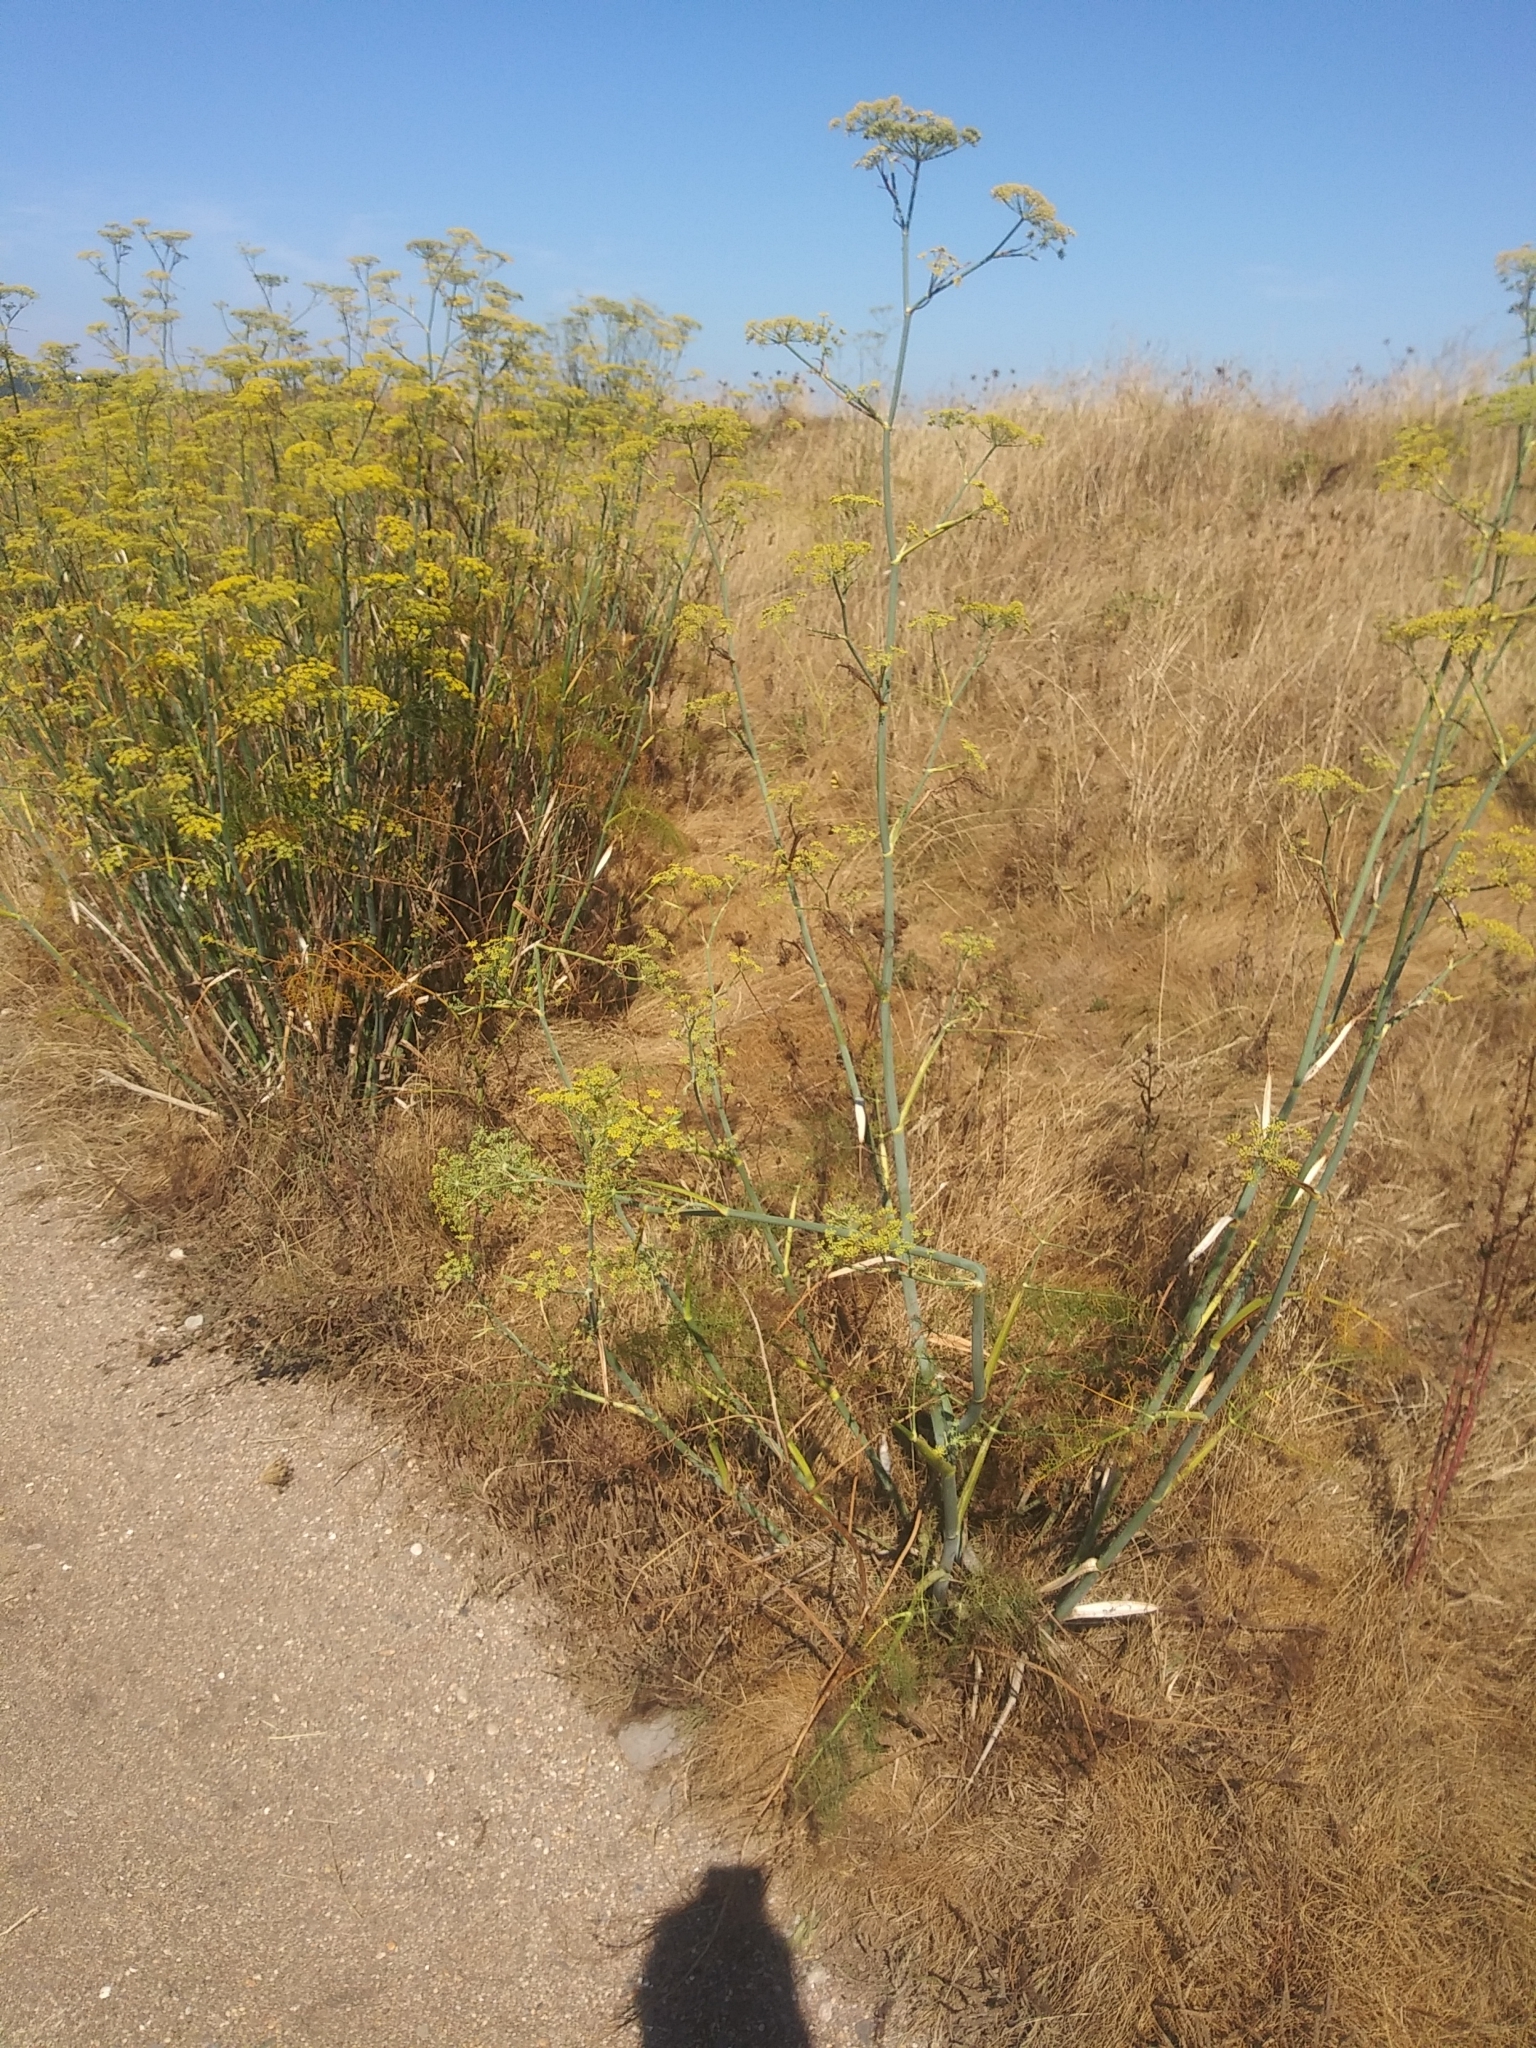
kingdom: Plantae
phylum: Tracheophyta
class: Magnoliopsida
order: Apiales
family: Apiaceae
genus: Foeniculum
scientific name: Foeniculum vulgare
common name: Fennel
